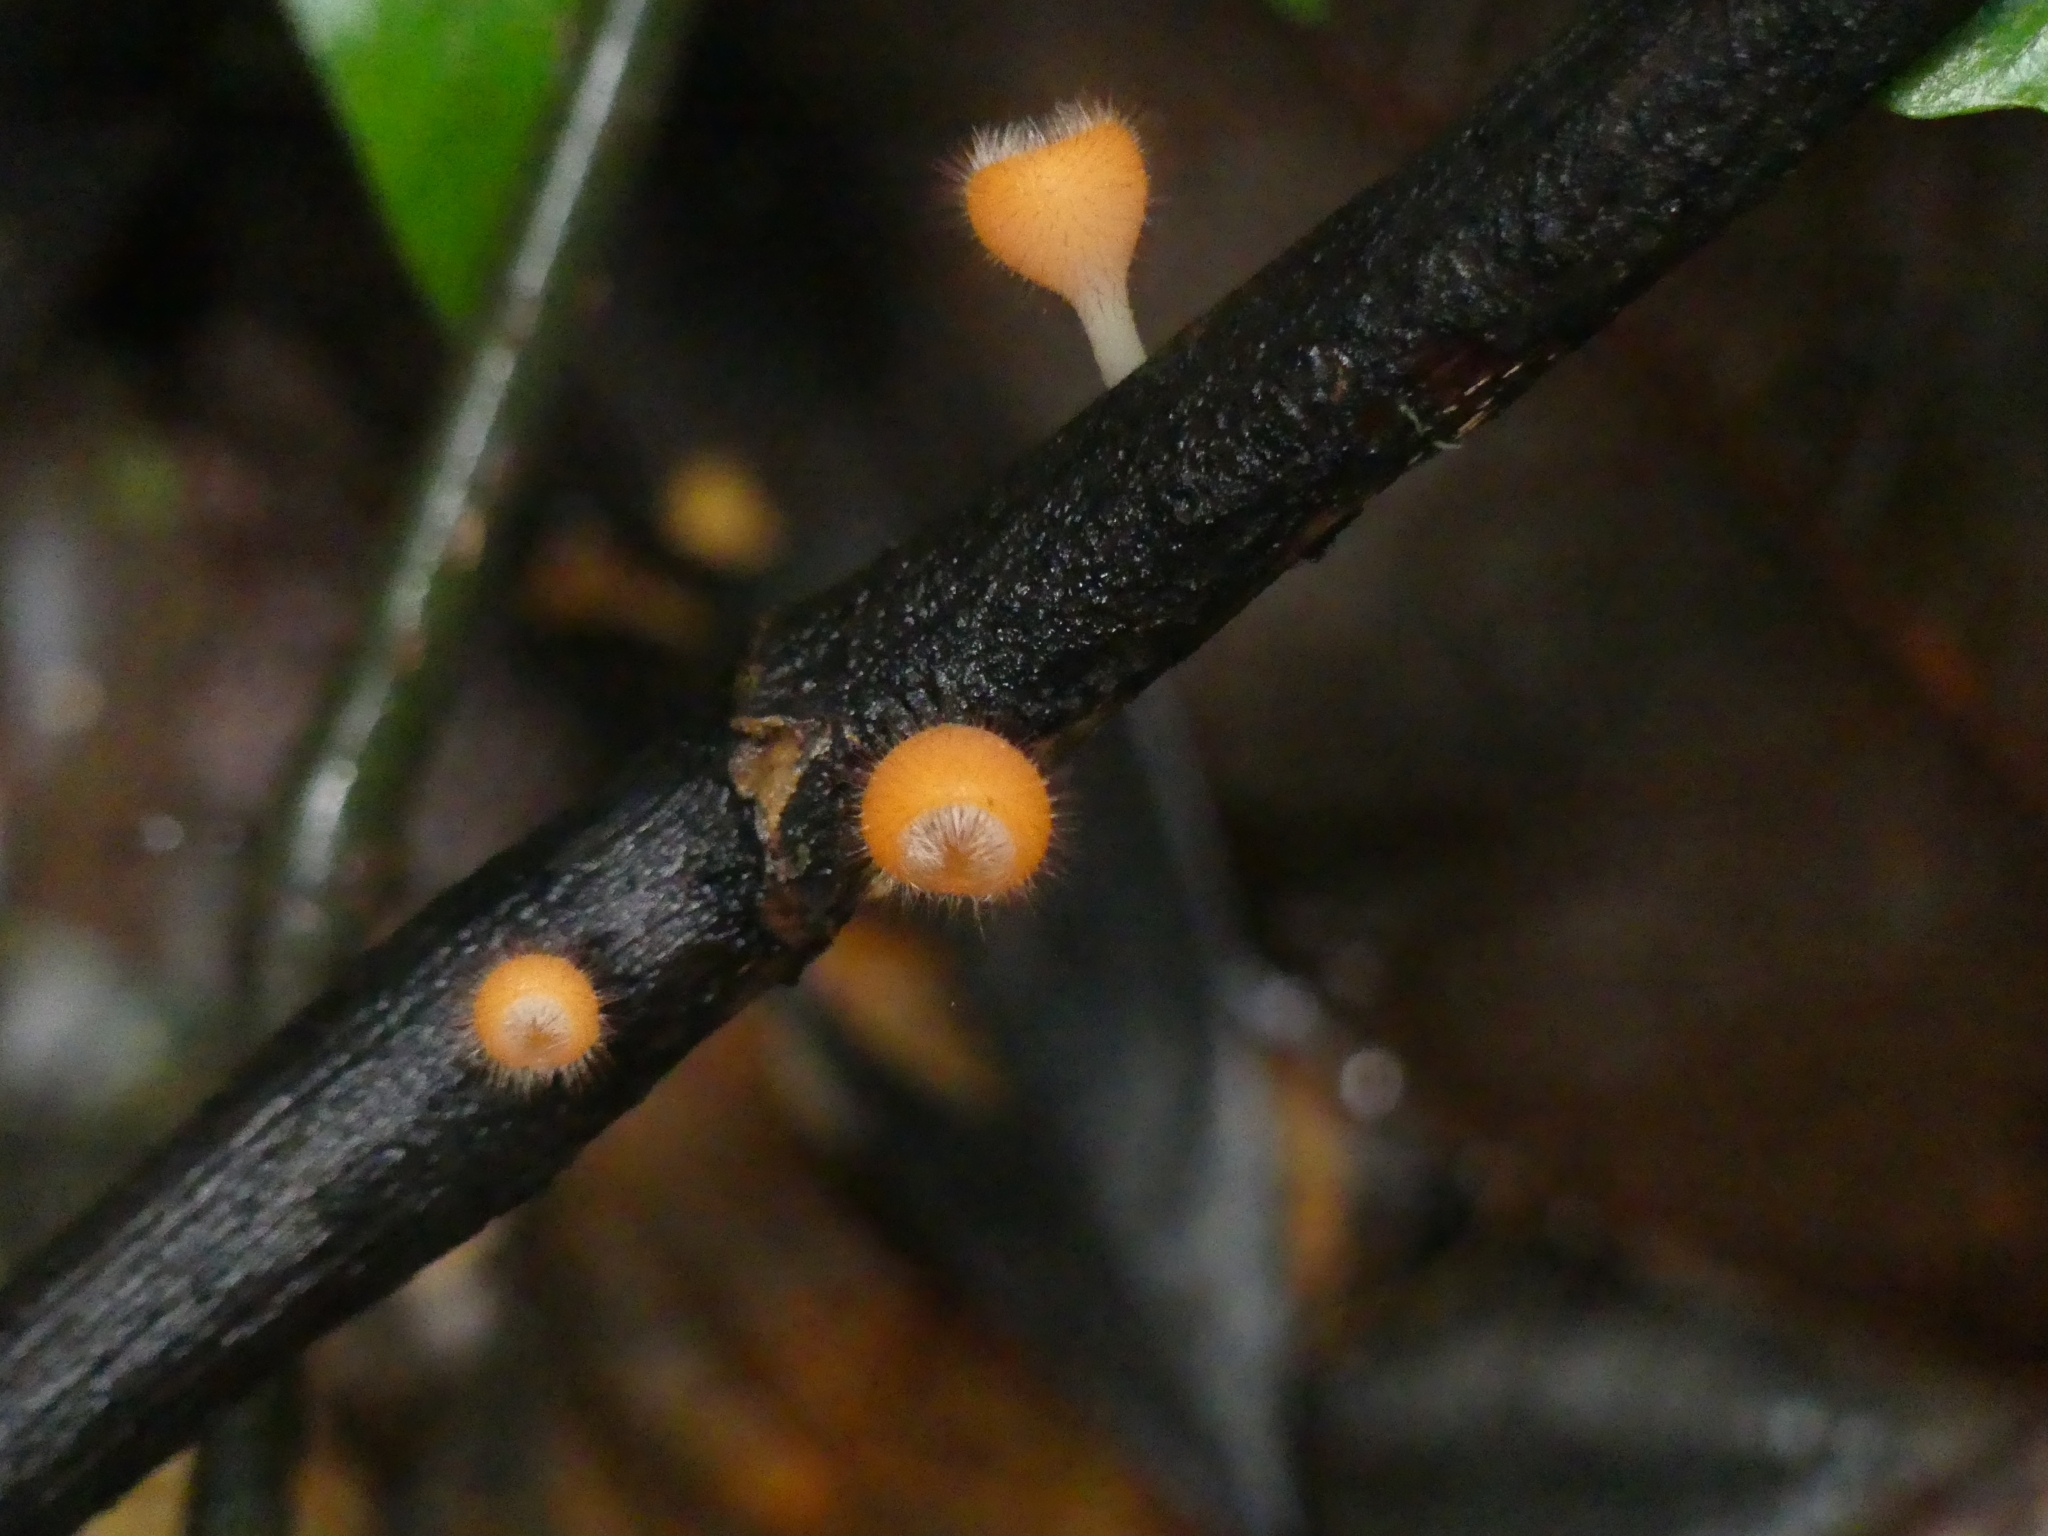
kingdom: Fungi
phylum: Ascomycota
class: Pezizomycetes
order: Pezizales
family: Sarcoscyphaceae
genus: Cookeina
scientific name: Cookeina tricholoma
